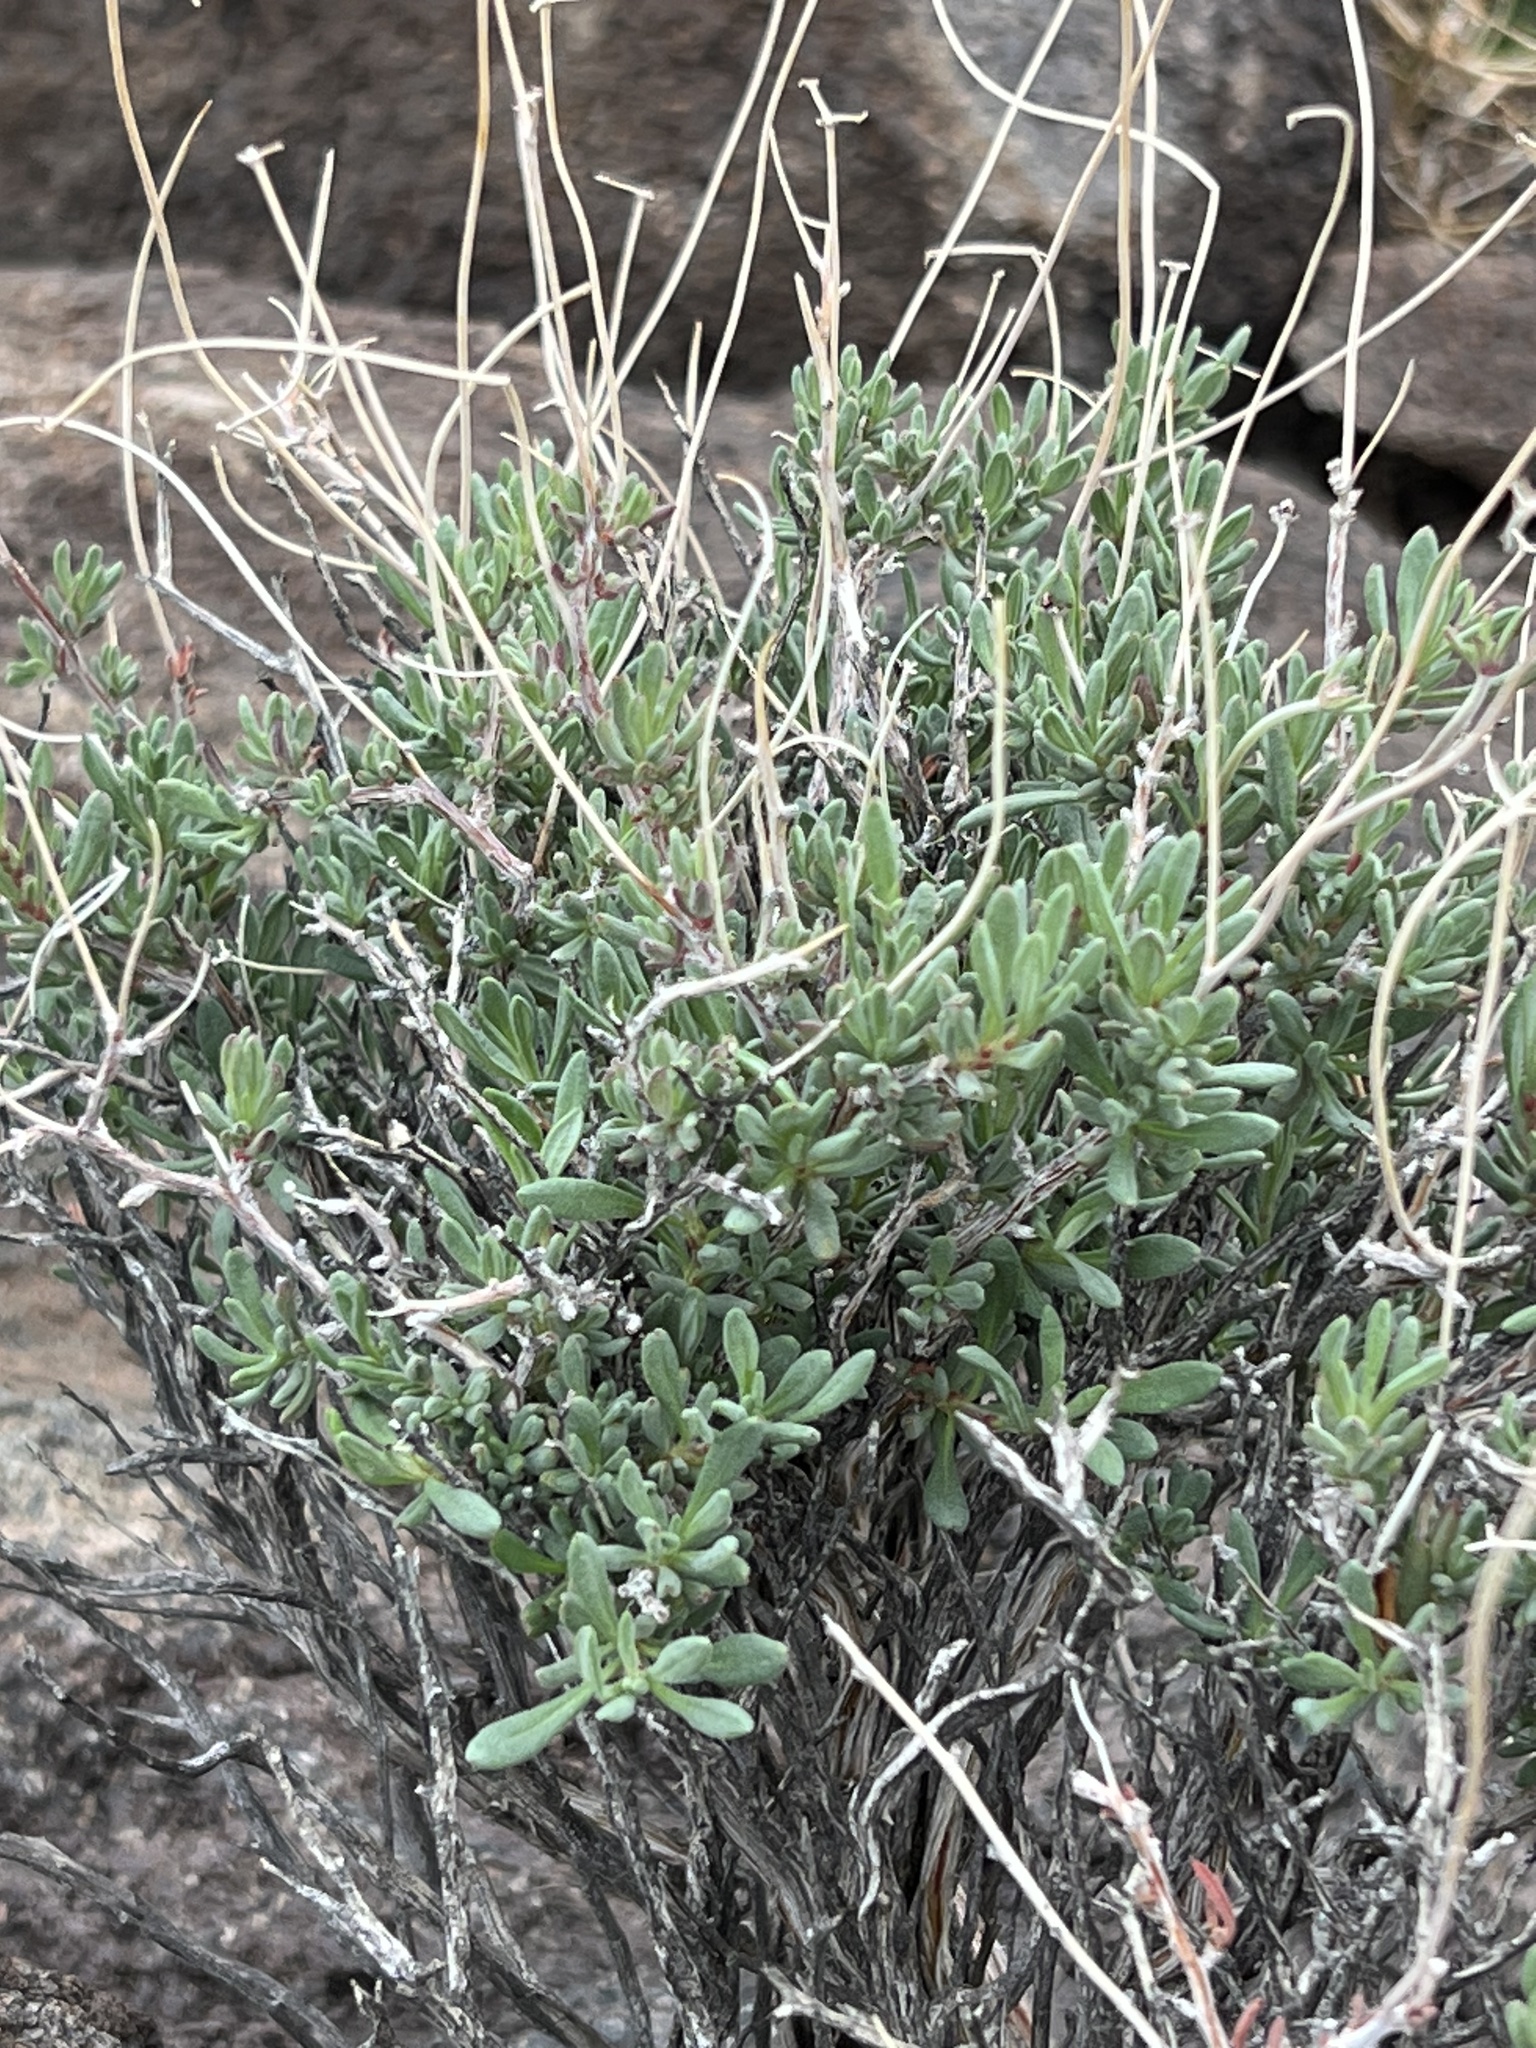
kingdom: Plantae
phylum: Tracheophyta
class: Magnoliopsida
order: Caryophyllales
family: Polygonaceae
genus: Eriogonum
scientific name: Eriogonum fasciculatum
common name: California wild buckwheat
